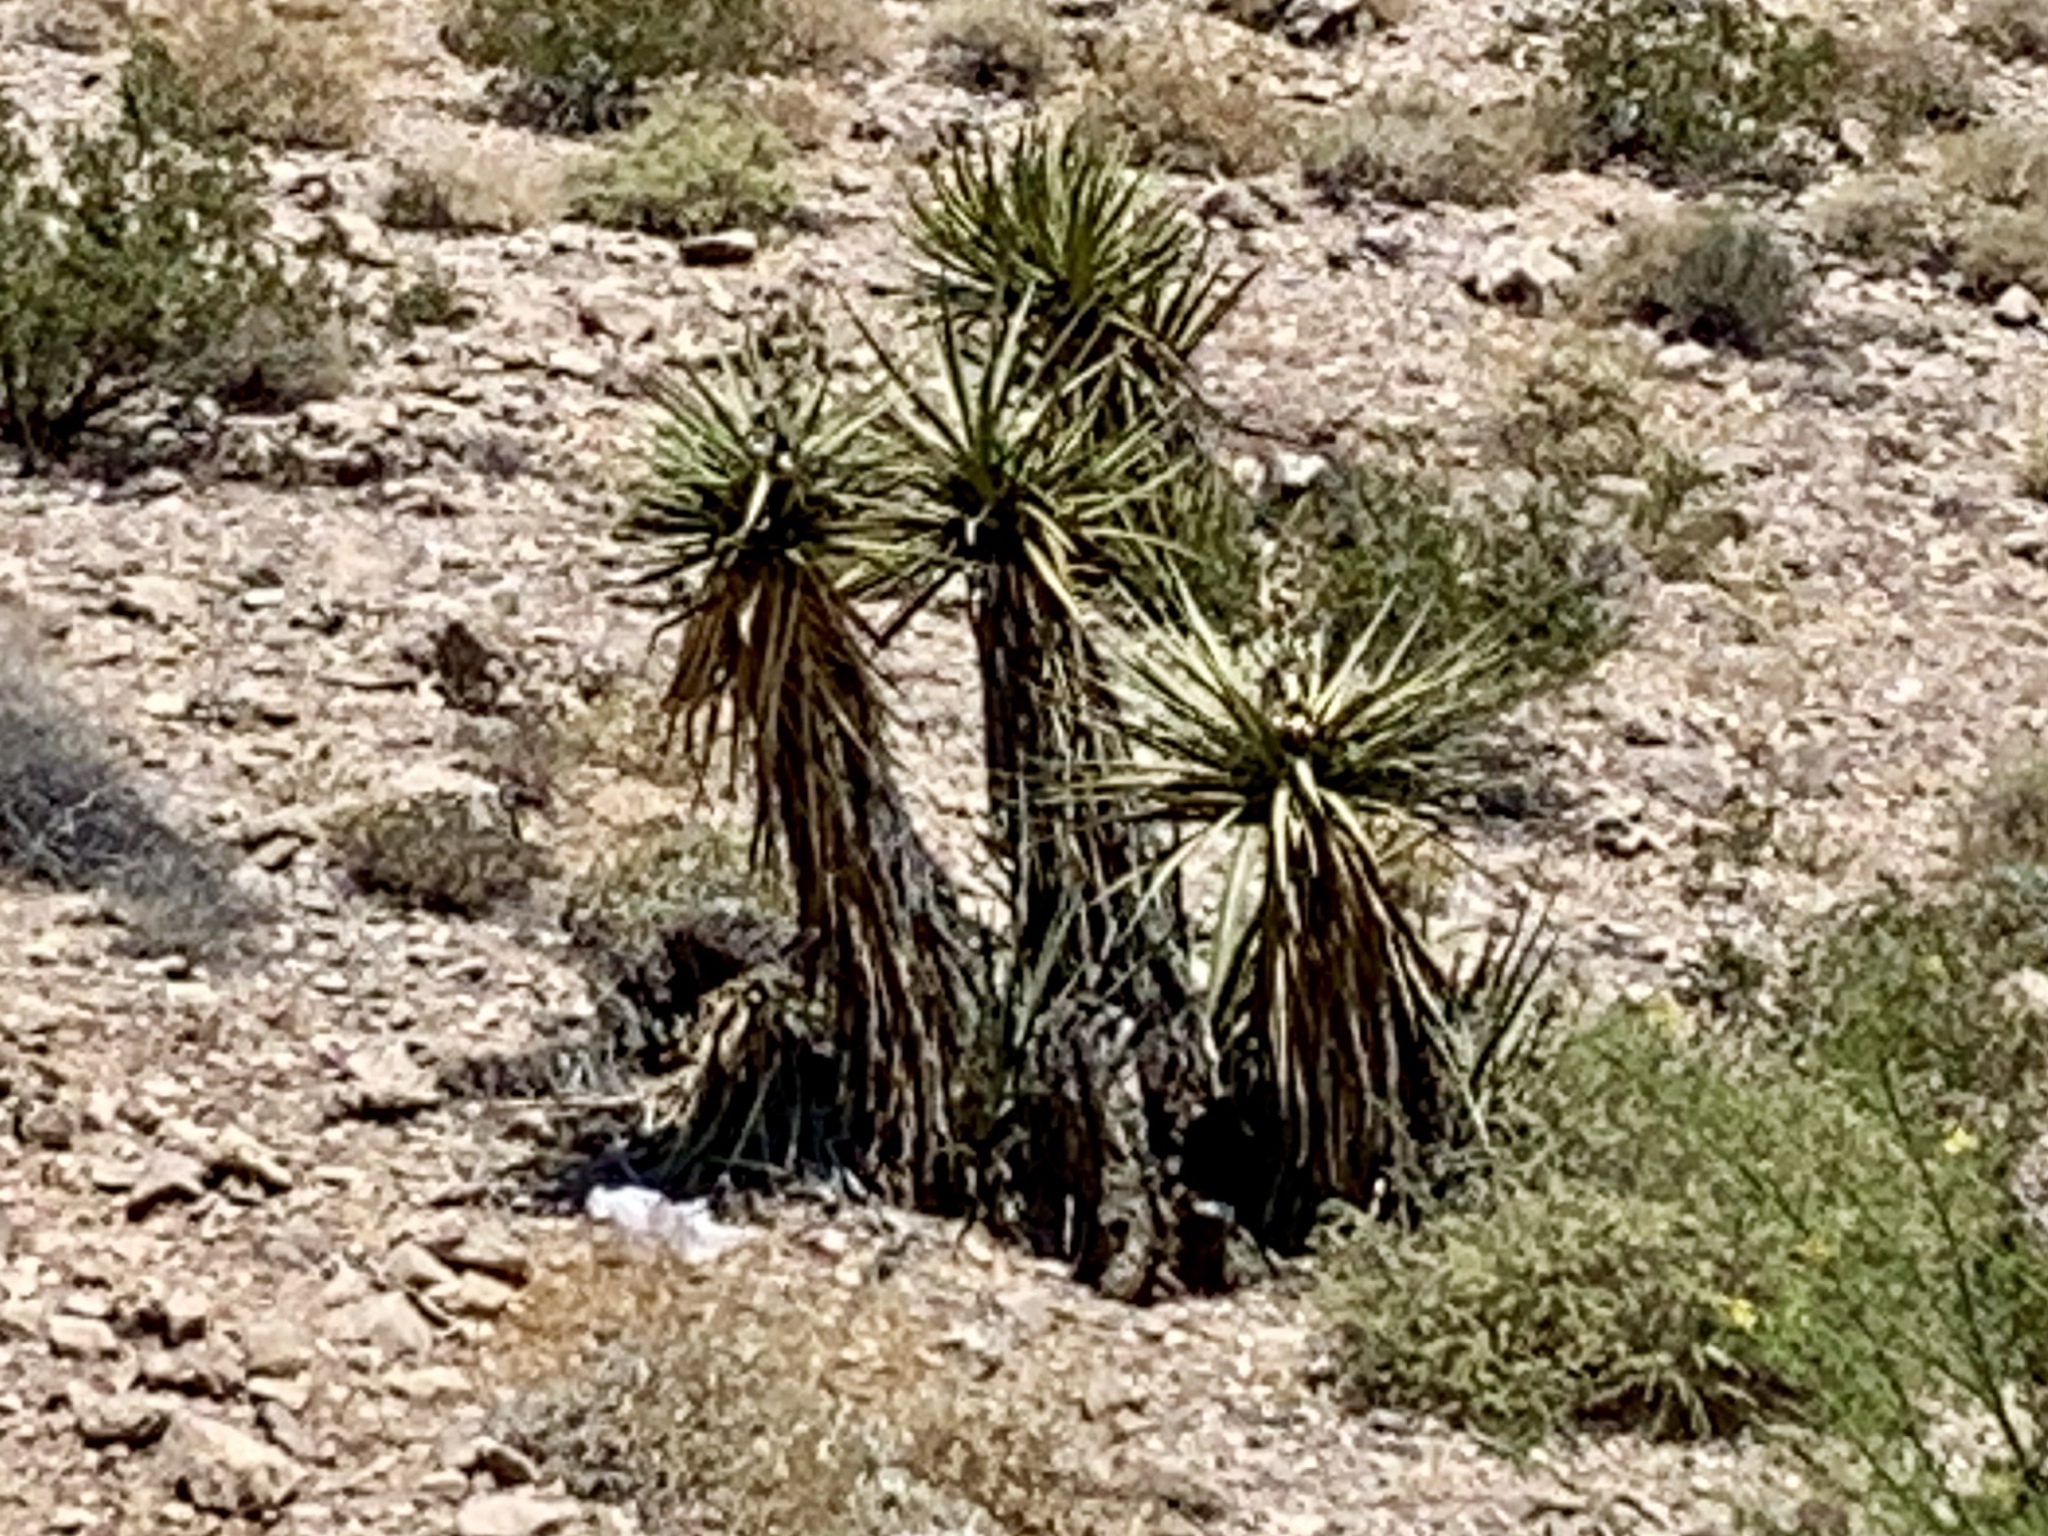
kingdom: Plantae
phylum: Tracheophyta
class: Liliopsida
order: Asparagales
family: Asparagaceae
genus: Yucca
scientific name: Yucca schidigera
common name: Mojave yucca
